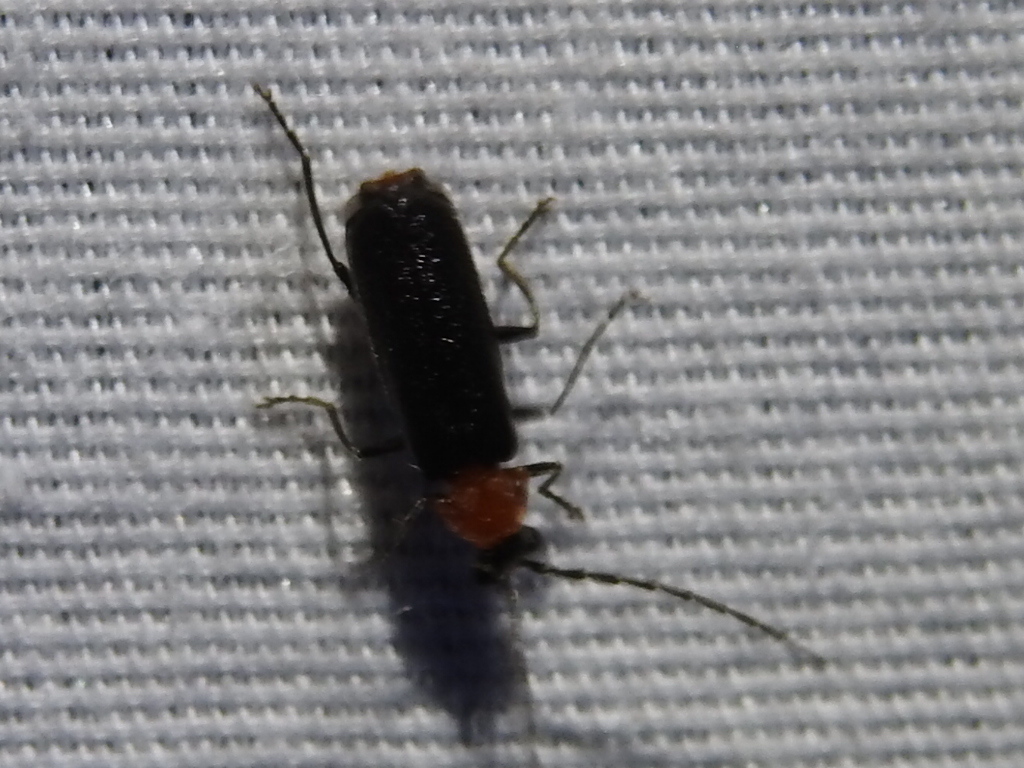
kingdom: Animalia
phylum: Arthropoda
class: Insecta
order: Coleoptera
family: Cantharidae
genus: Ditemnus
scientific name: Ditemnus
